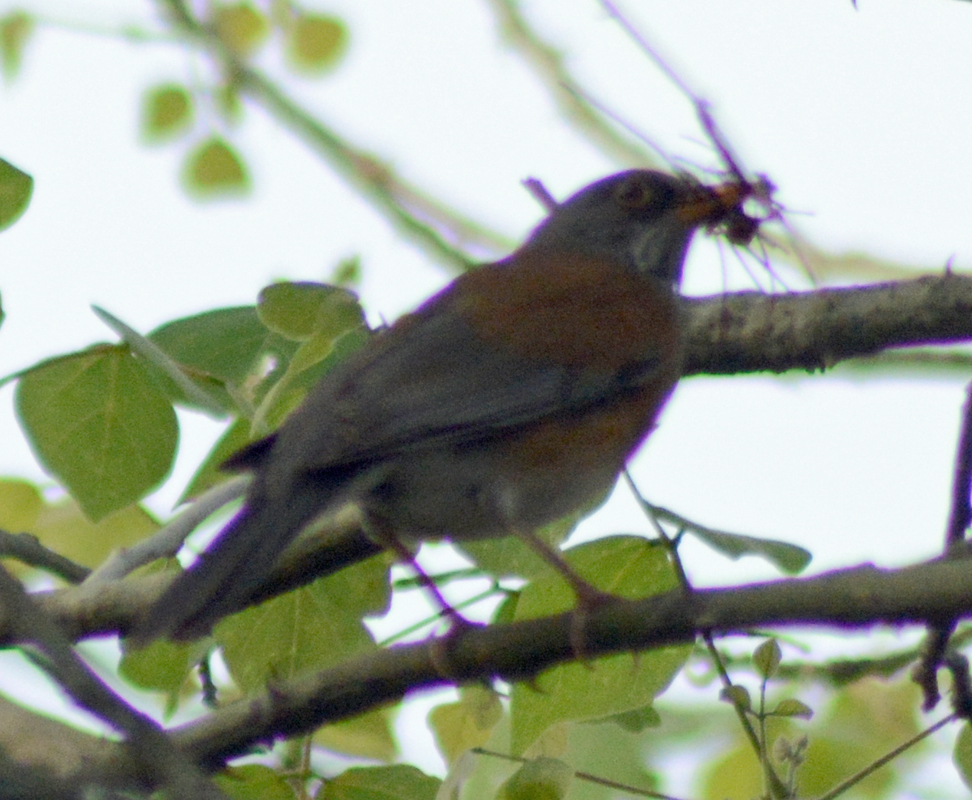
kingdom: Animalia
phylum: Chordata
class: Aves
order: Passeriformes
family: Turdidae
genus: Turdus
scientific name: Turdus rufopalliatus
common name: Rufous-backed robin
